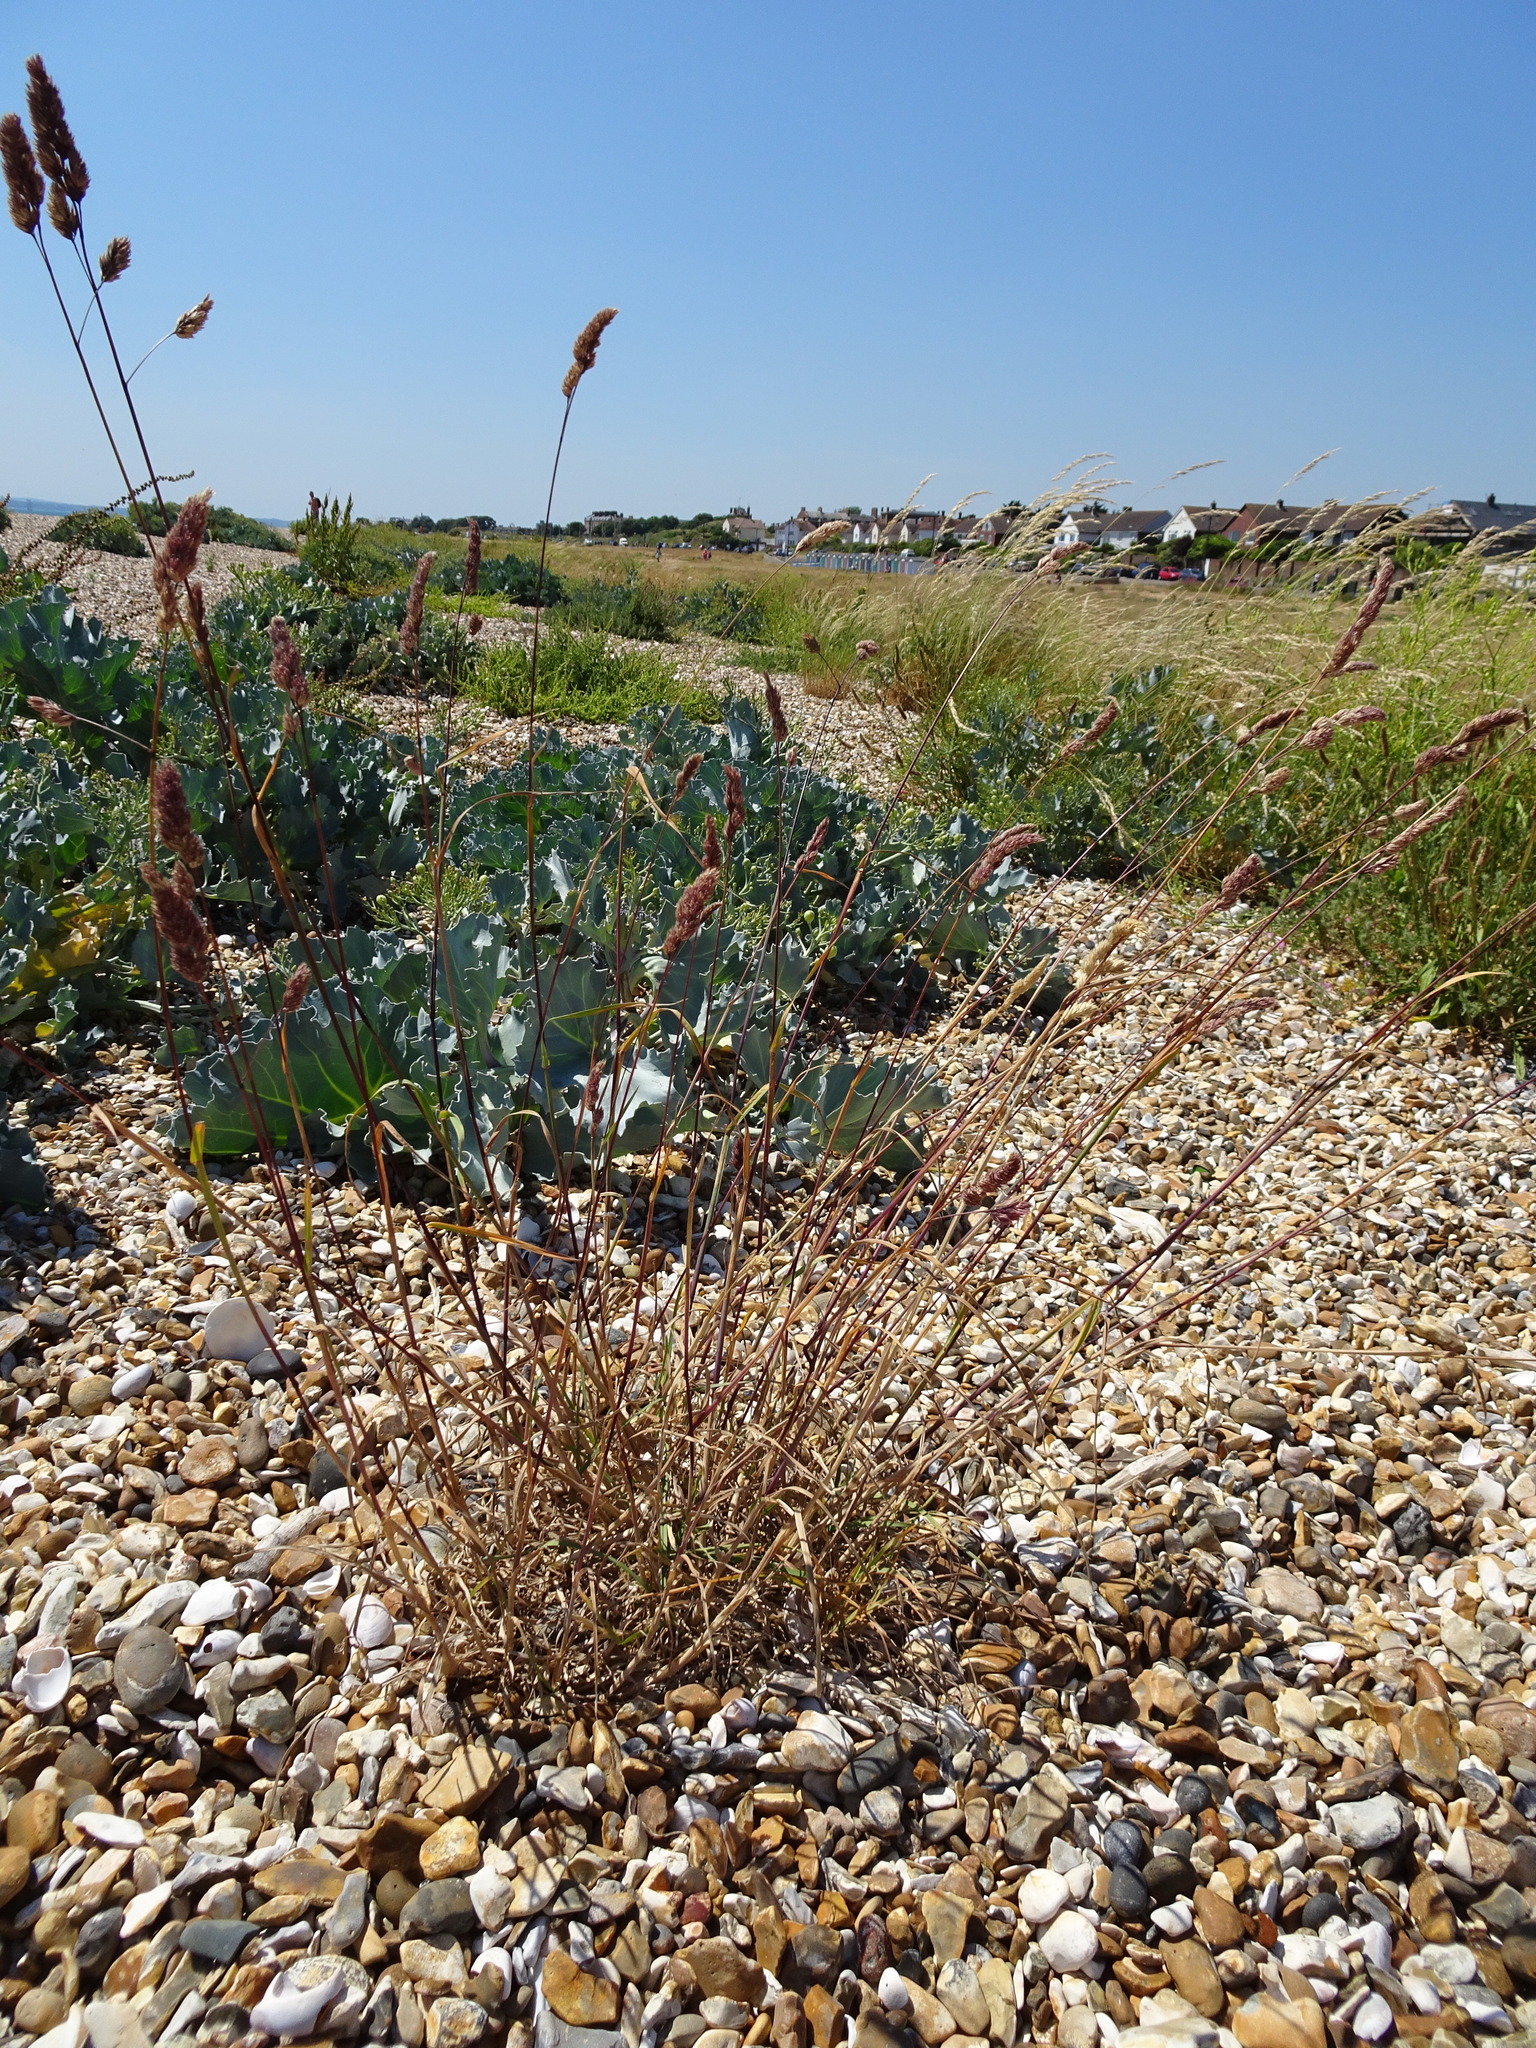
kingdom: Plantae
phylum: Tracheophyta
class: Liliopsida
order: Poales
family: Poaceae
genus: Dactylis
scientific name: Dactylis glomerata
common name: Orchardgrass
